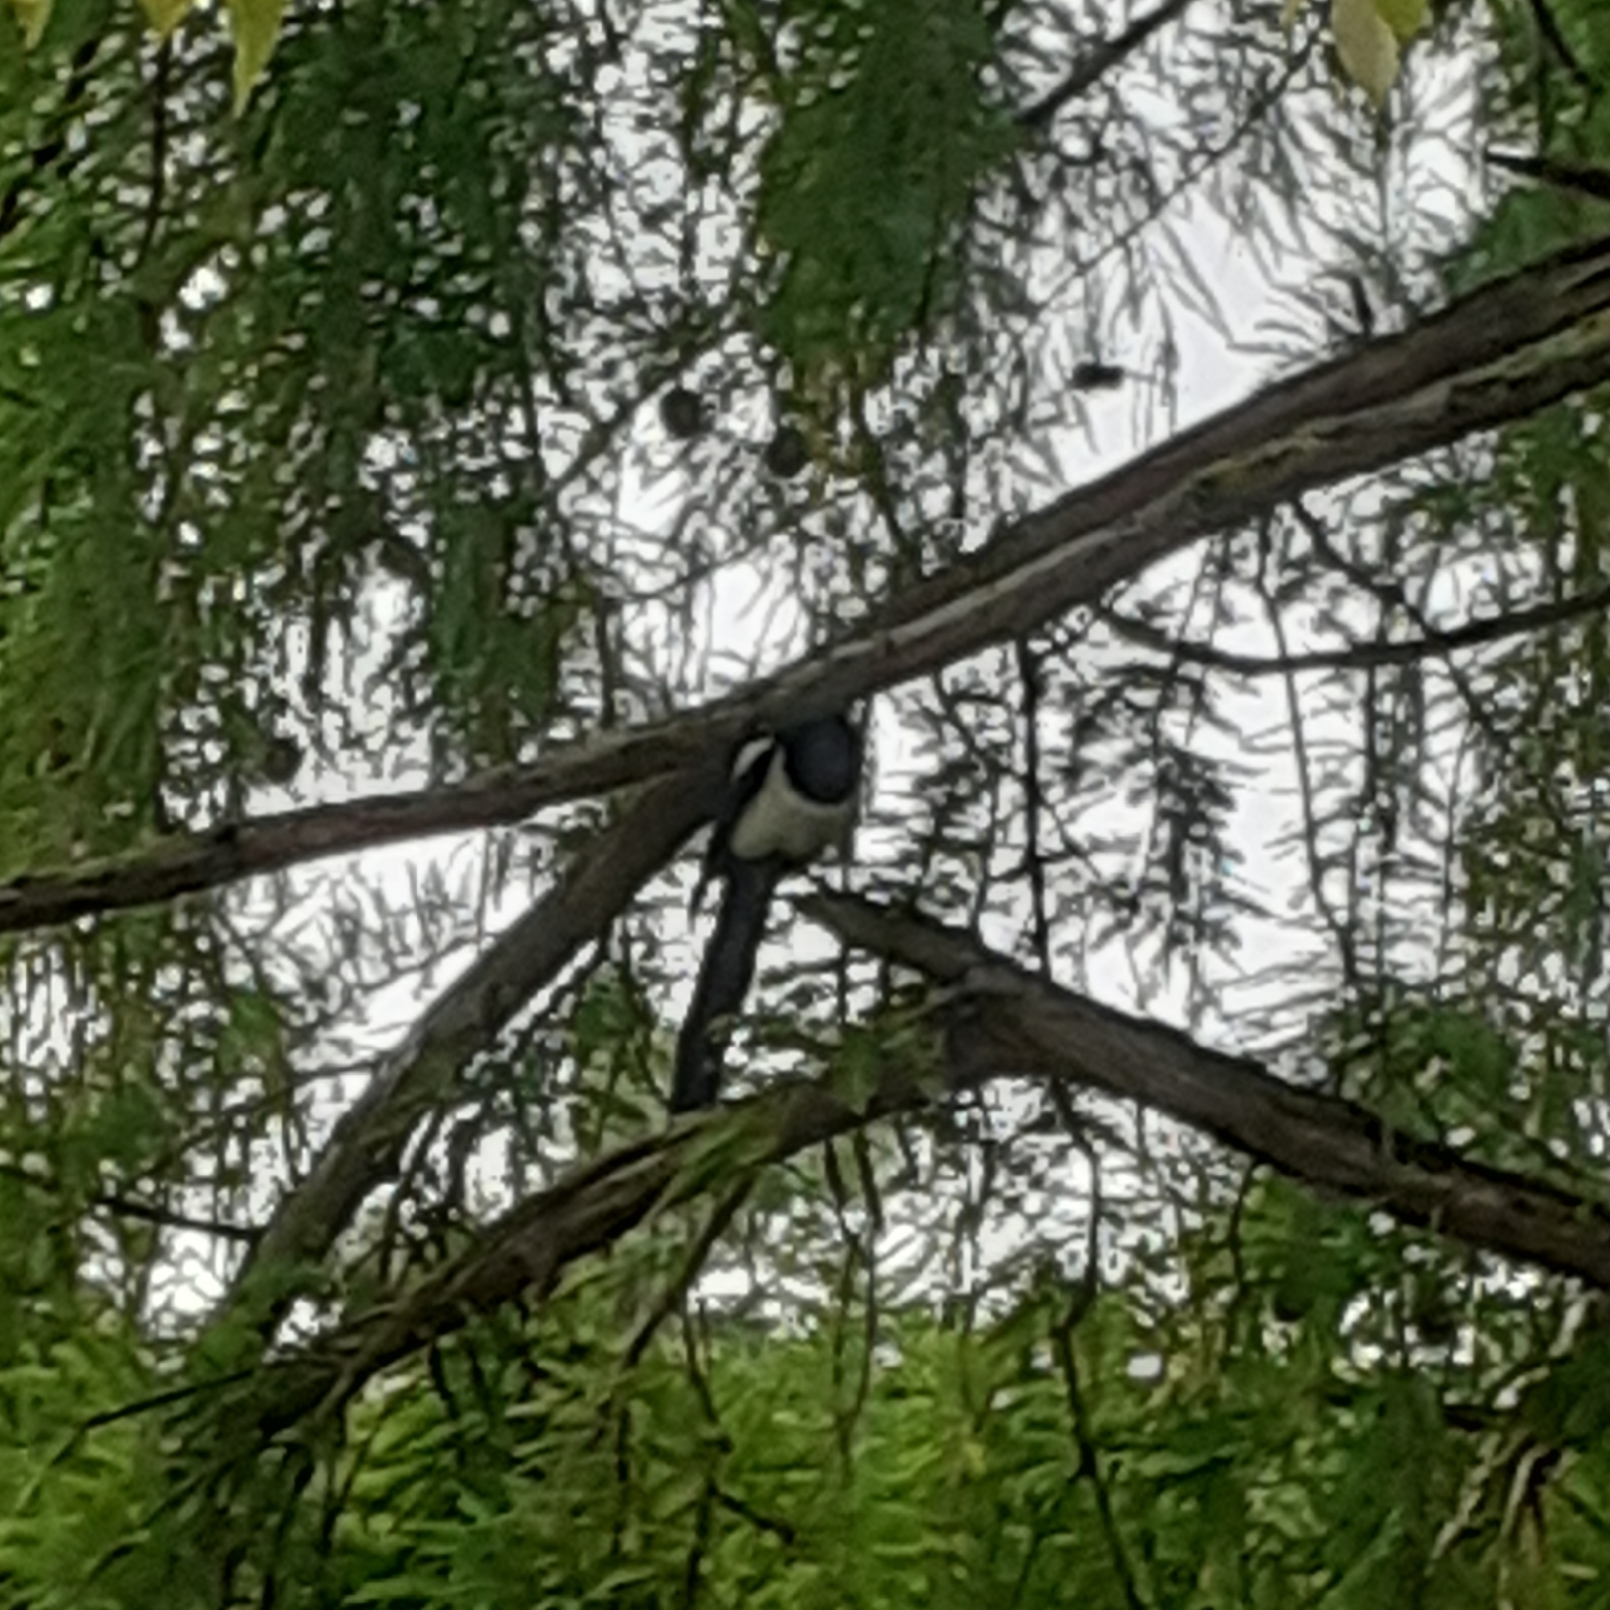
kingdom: Animalia
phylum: Chordata
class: Aves
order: Passeriformes
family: Corvidae
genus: Pica
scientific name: Pica pica
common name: Eurasian magpie
